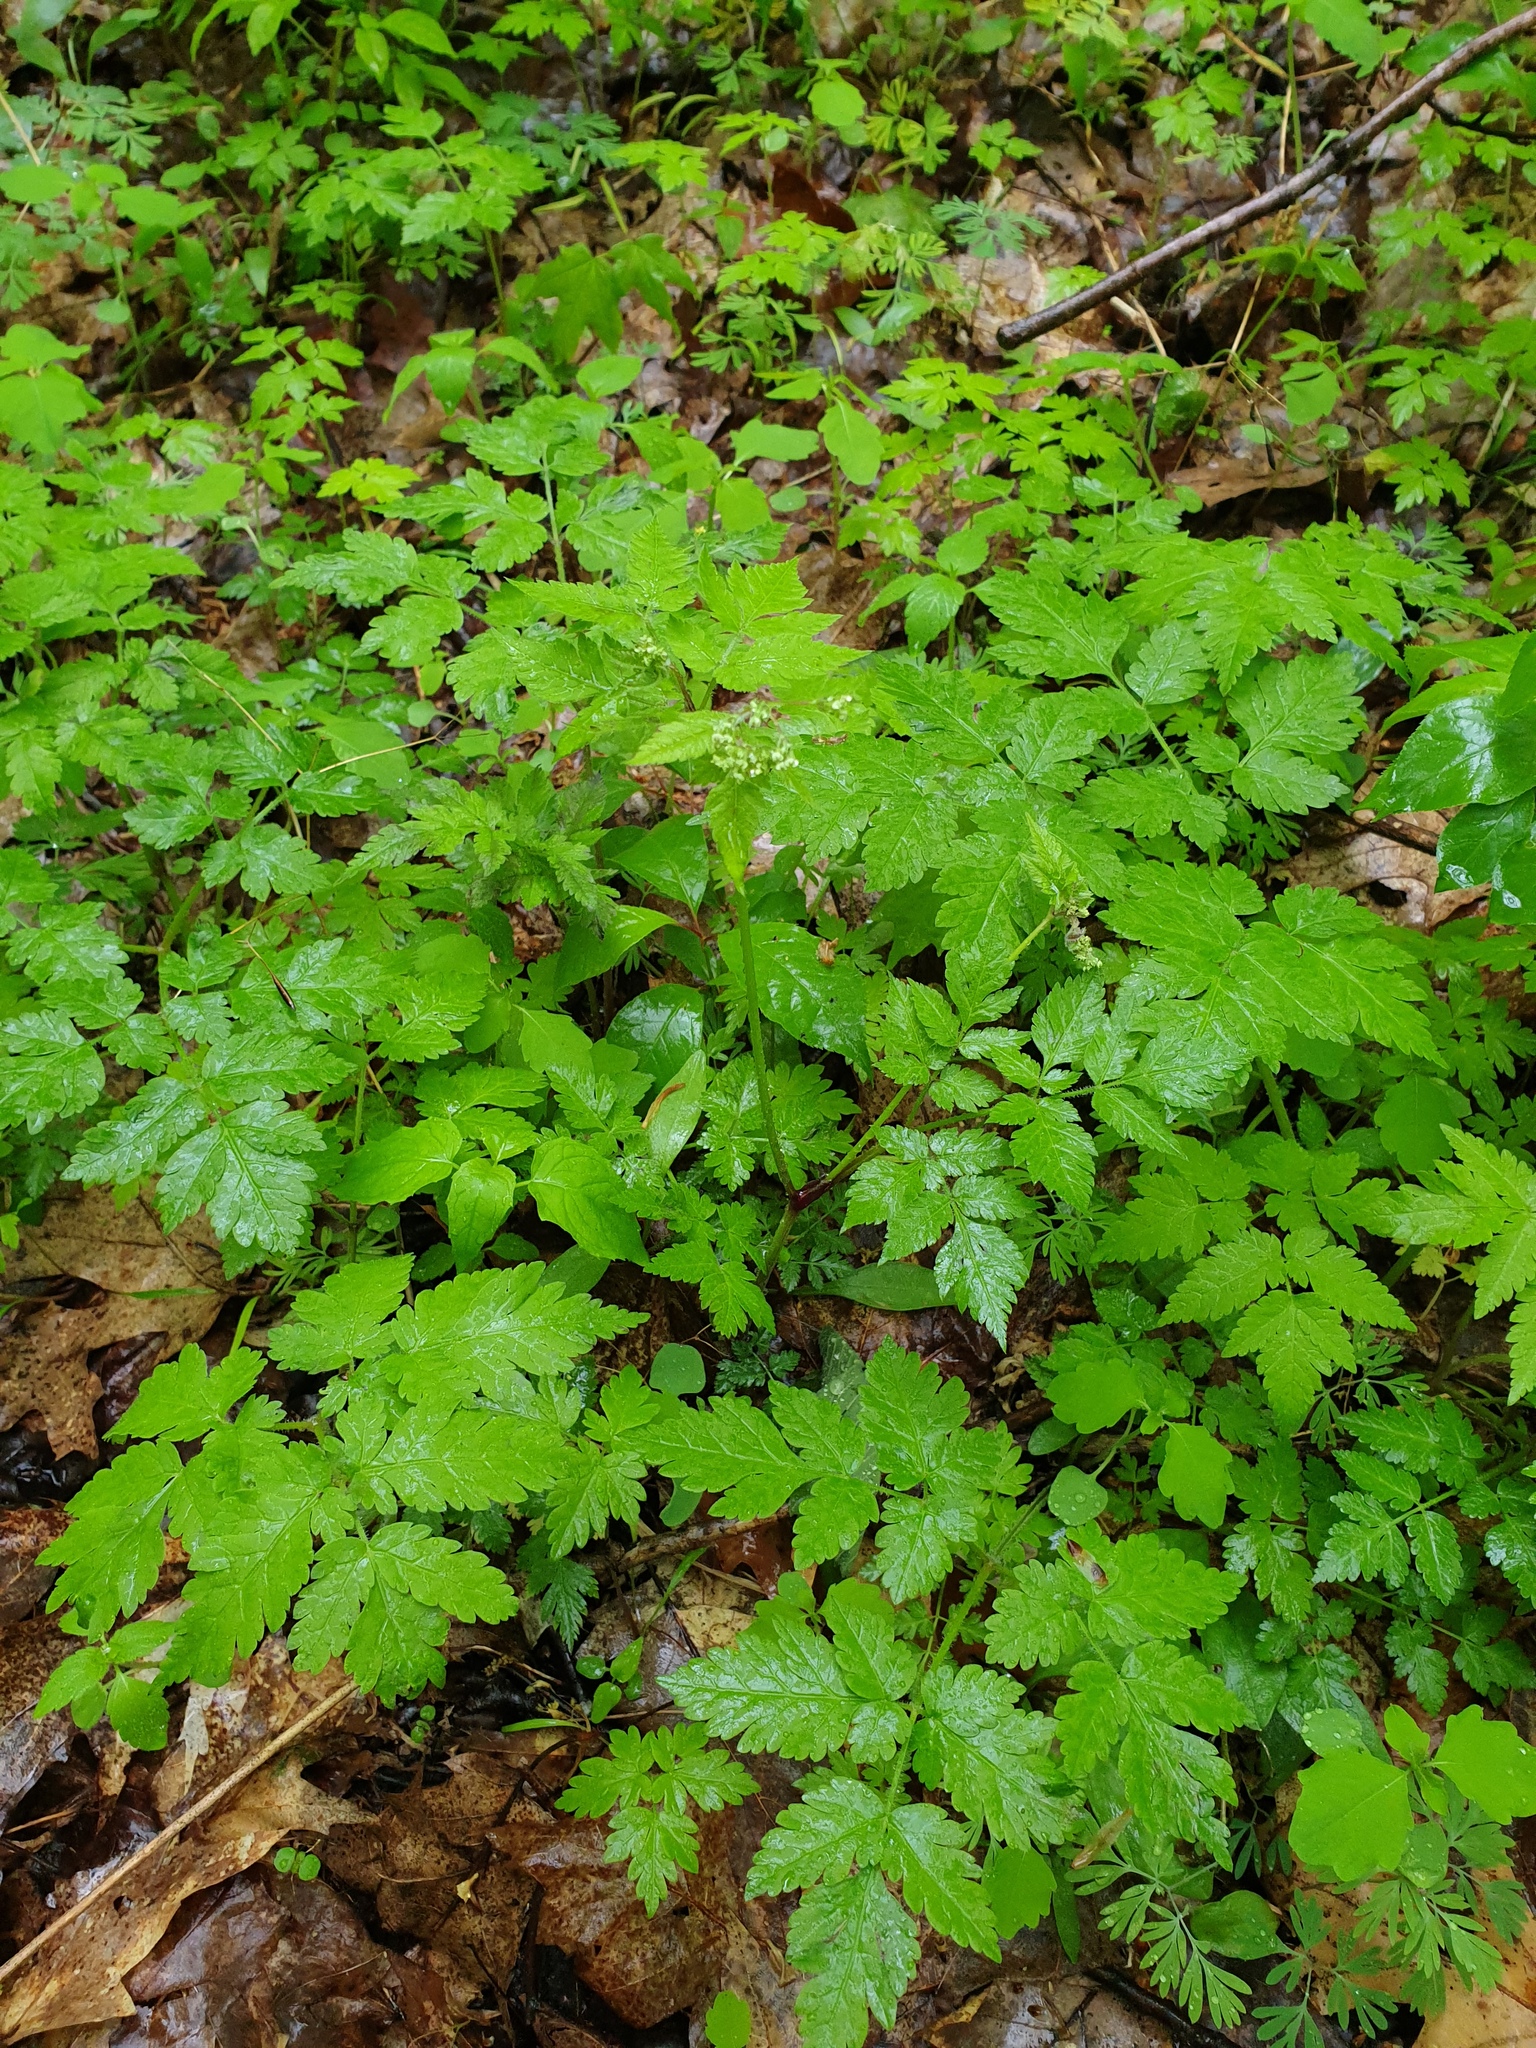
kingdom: Plantae
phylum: Tracheophyta
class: Magnoliopsida
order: Apiales
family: Apiaceae
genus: Osmorhiza
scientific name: Osmorhiza claytonii
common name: Hairy sweet cicely
